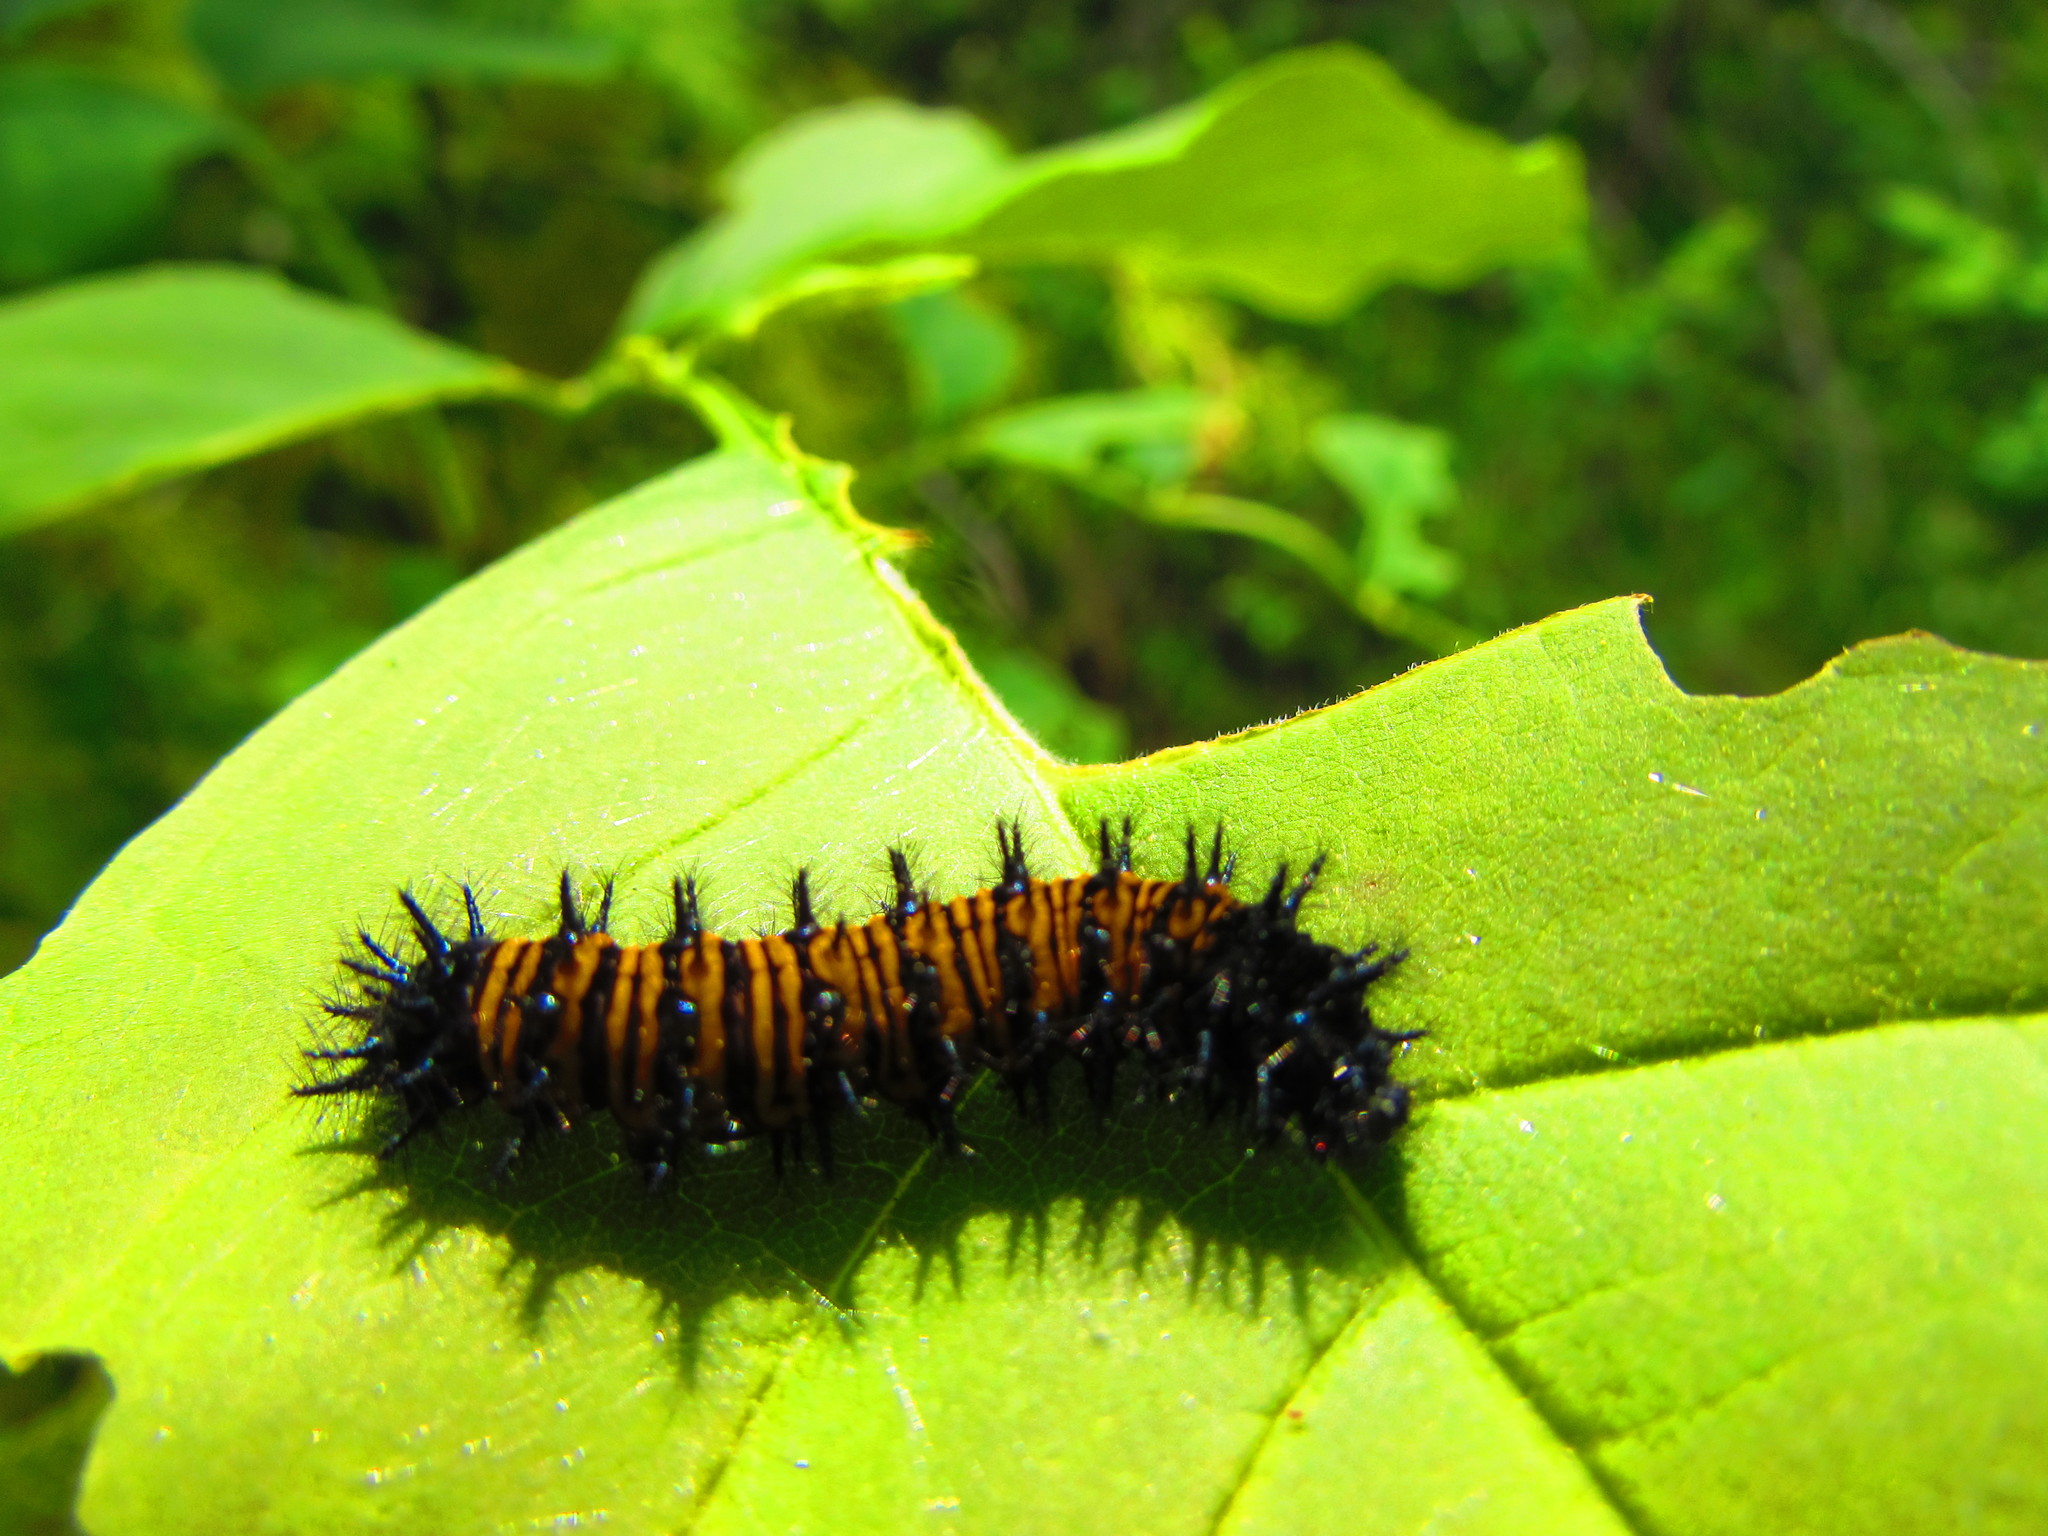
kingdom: Animalia
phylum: Arthropoda
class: Insecta
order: Lepidoptera
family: Nymphalidae
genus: Euphydryas
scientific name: Euphydryas phaeton
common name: Baltimore checkerspot
